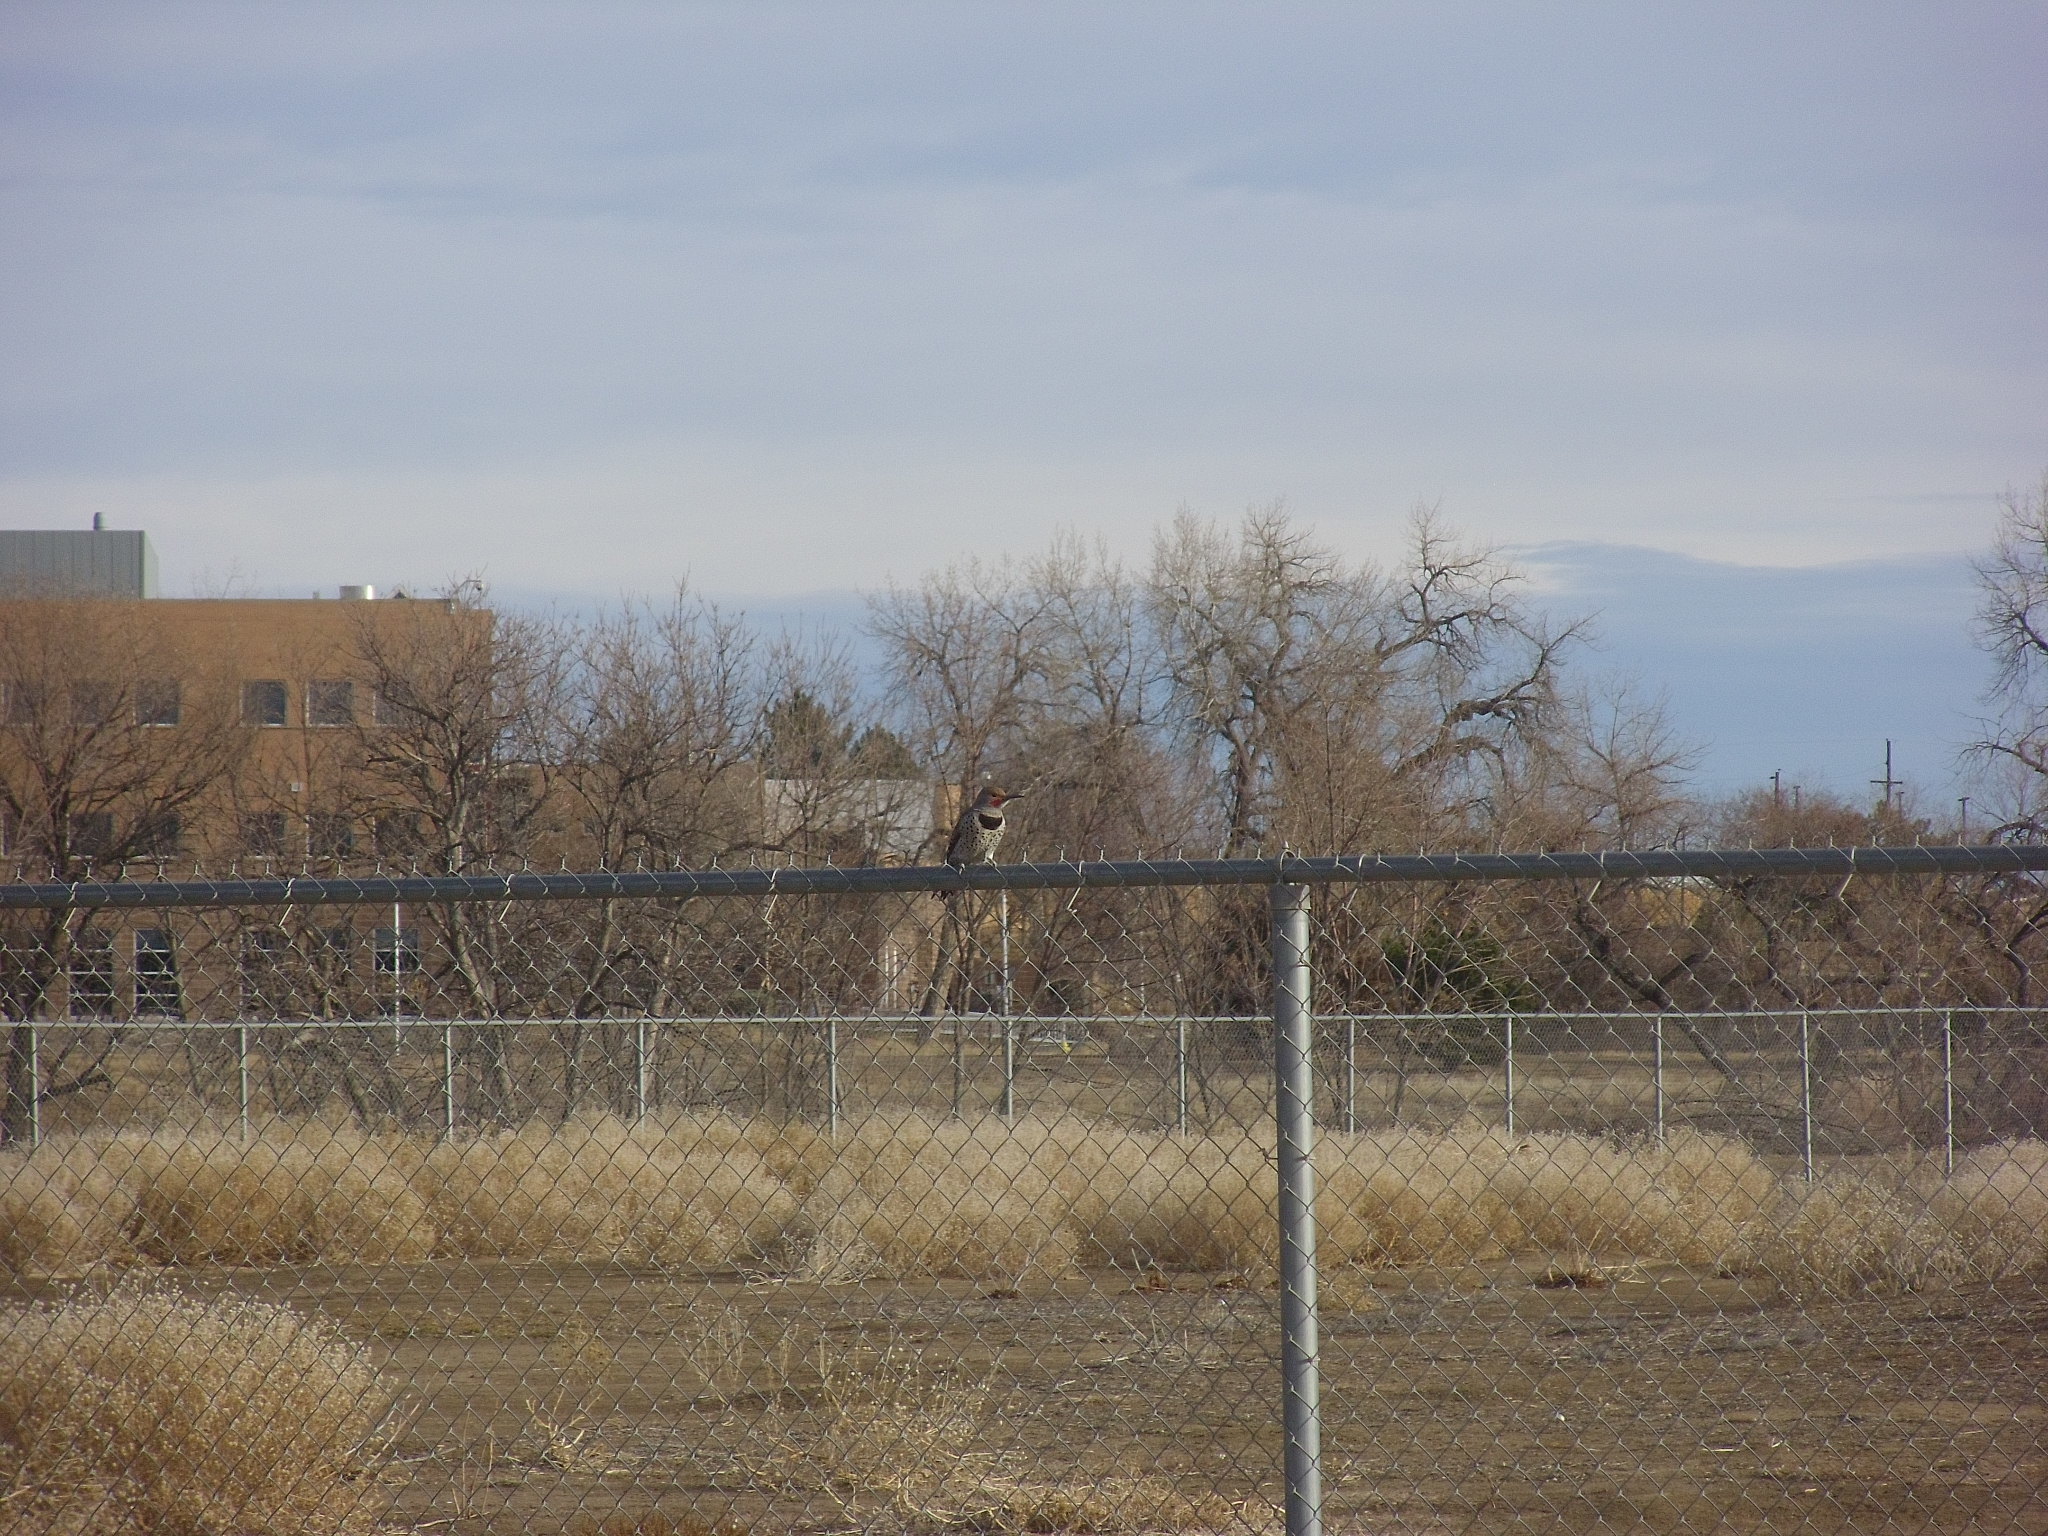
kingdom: Animalia
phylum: Chordata
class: Aves
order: Piciformes
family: Picidae
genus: Colaptes
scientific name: Colaptes auratus
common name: Northern flicker
